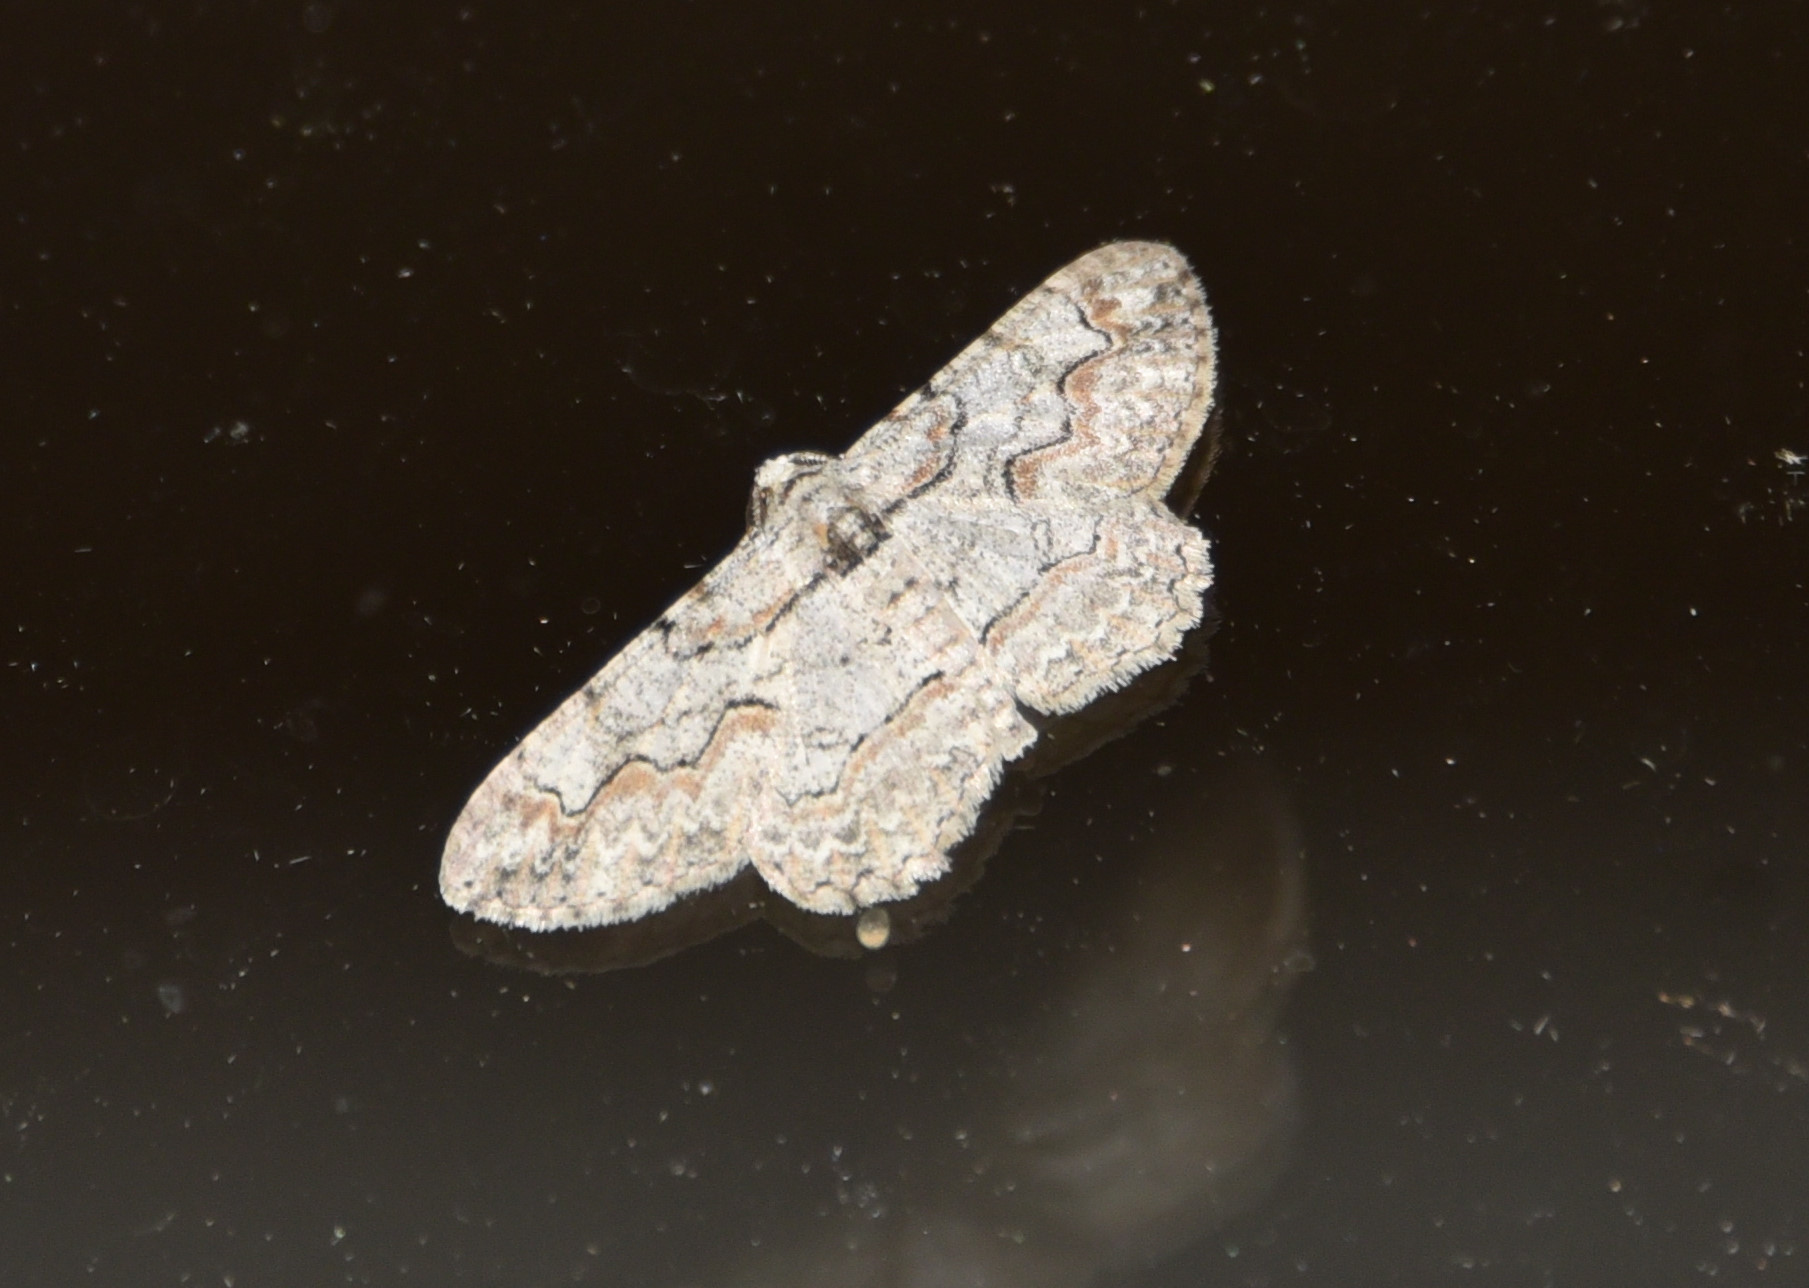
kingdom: Animalia
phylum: Arthropoda
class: Insecta
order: Lepidoptera
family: Geometridae
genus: Iridopsis
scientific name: Iridopsis defectaria
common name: Brown-shaded gray
